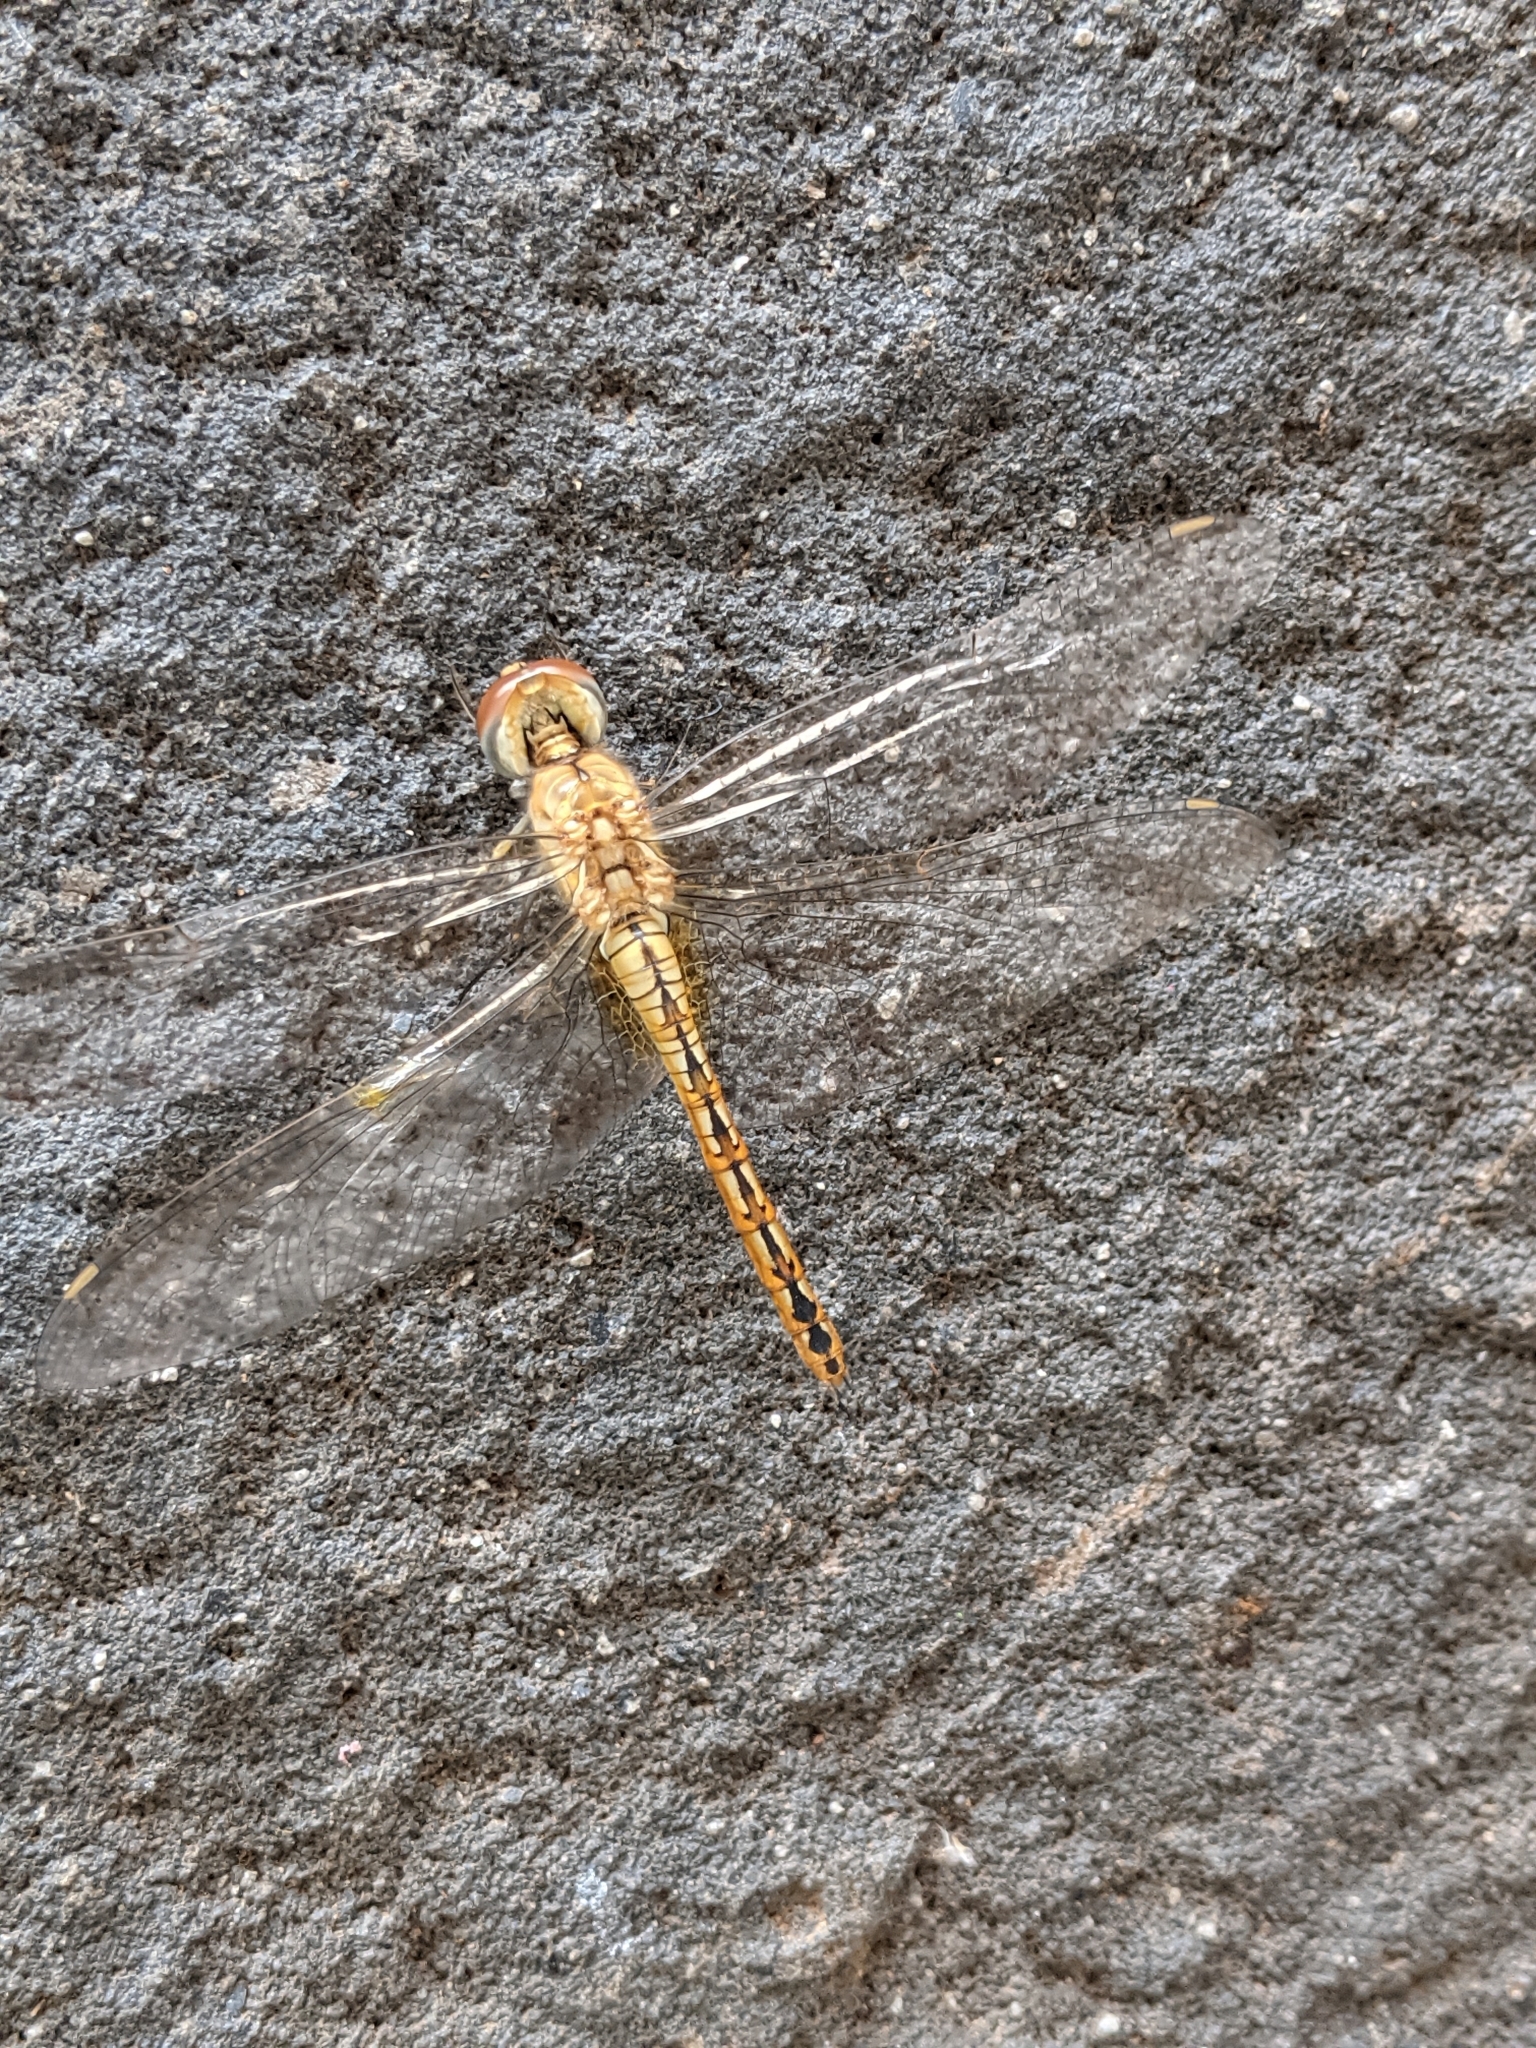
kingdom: Animalia
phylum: Arthropoda
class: Insecta
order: Odonata
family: Libellulidae
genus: Pantala
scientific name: Pantala flavescens
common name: Wandering glider
